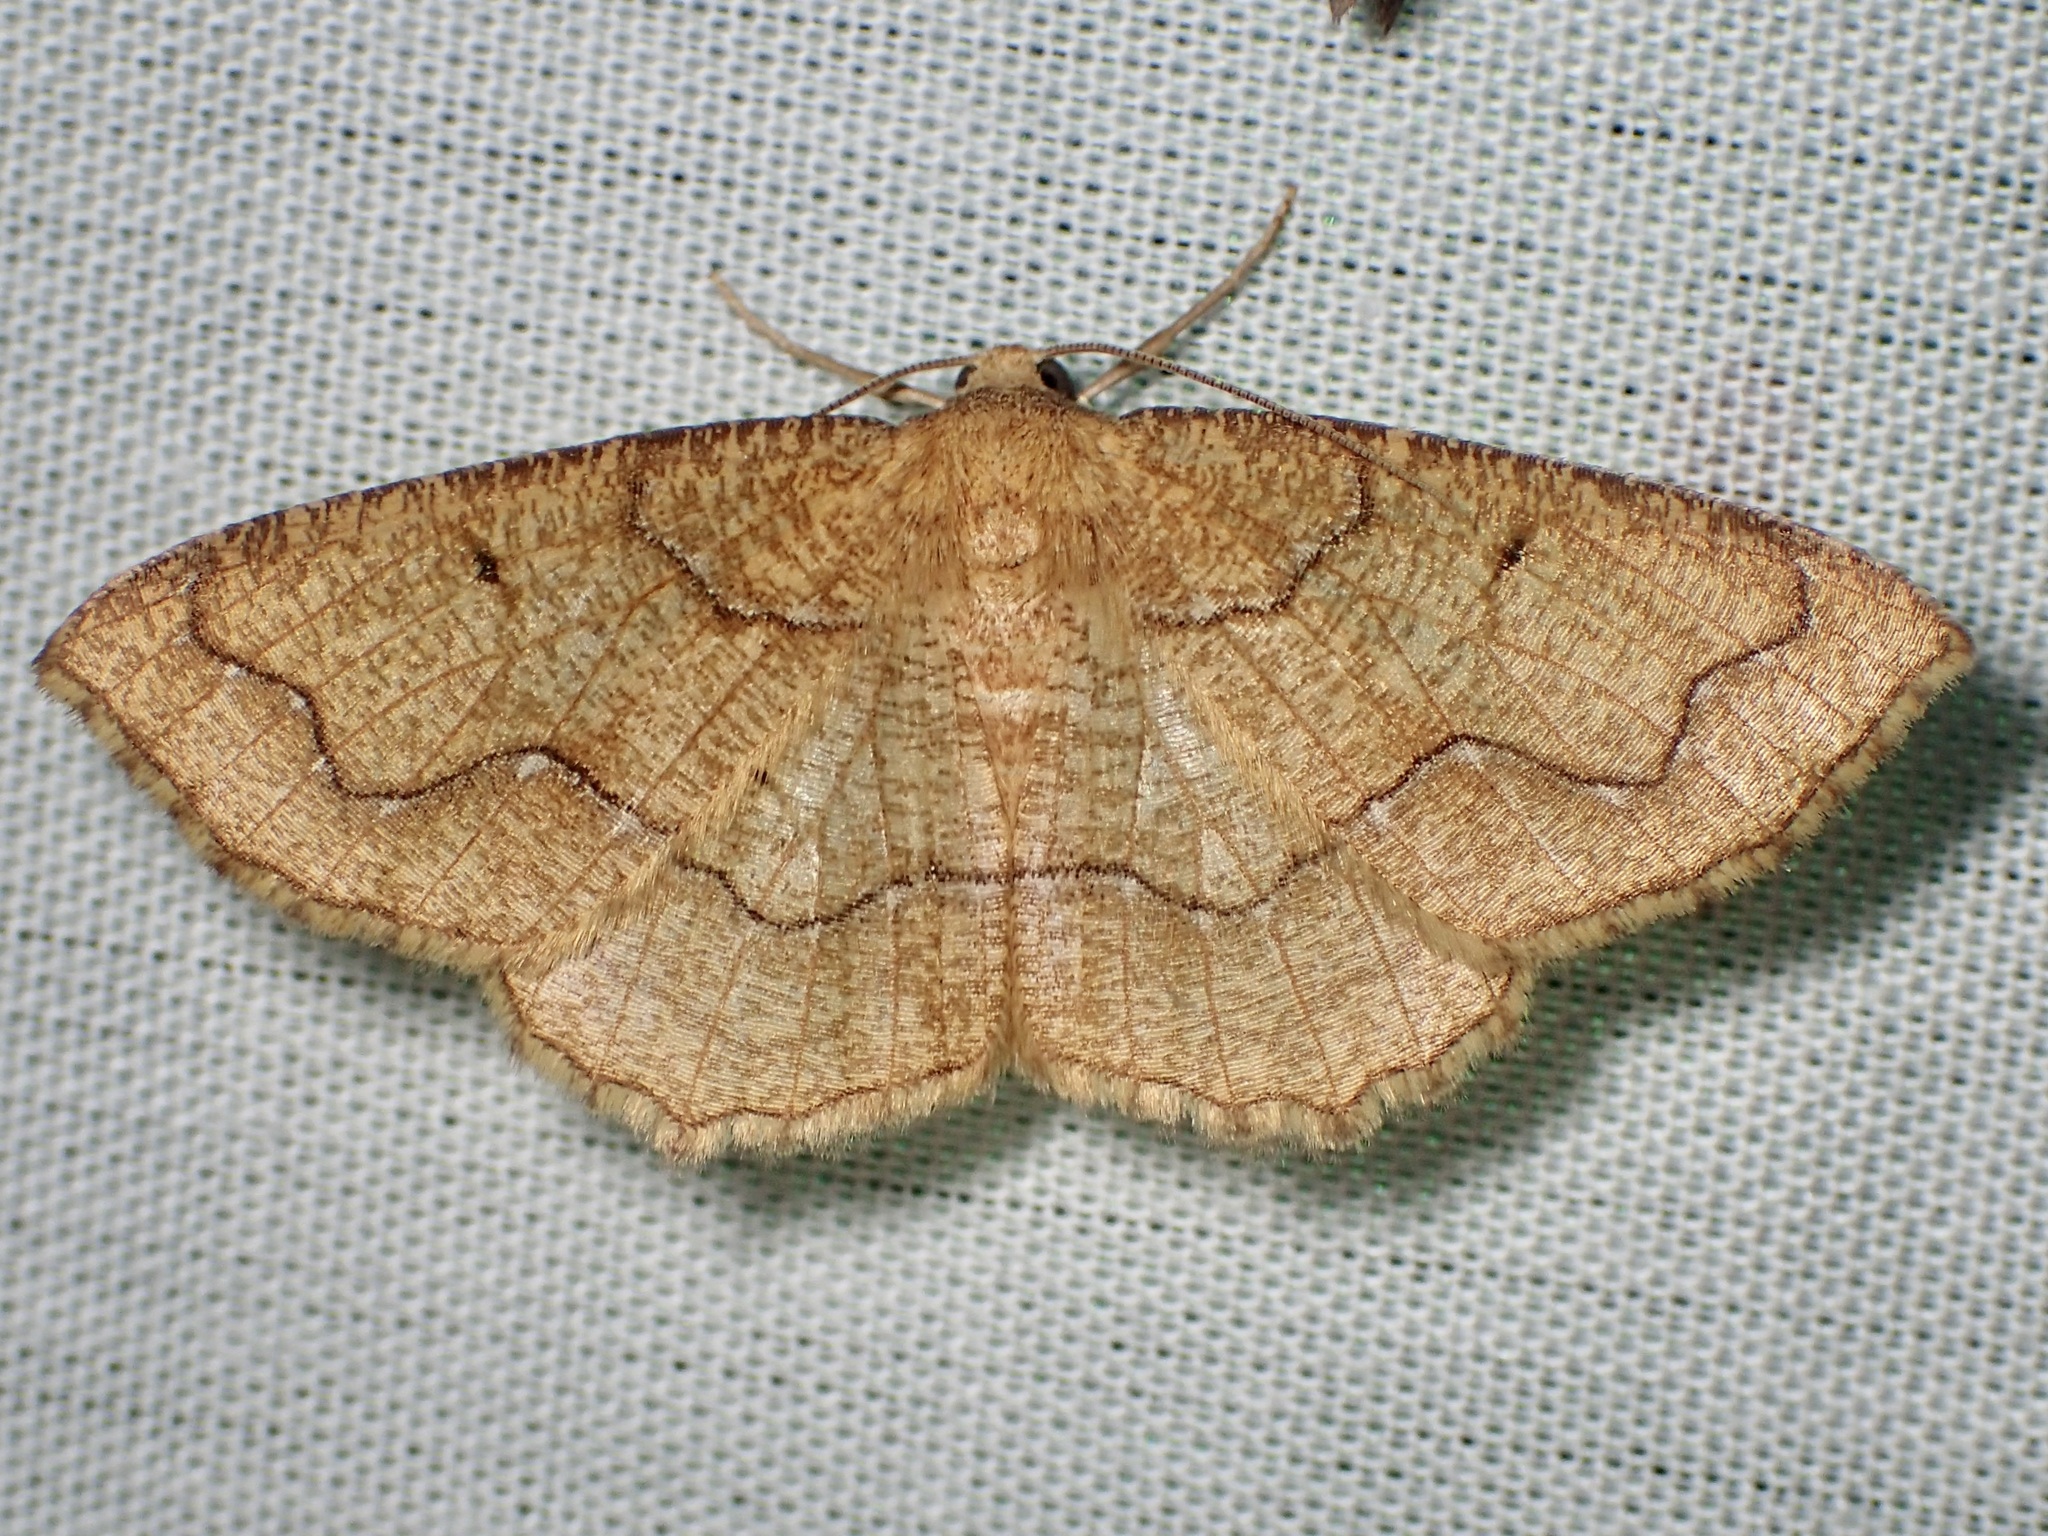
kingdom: Animalia
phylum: Arthropoda
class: Insecta
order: Lepidoptera
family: Geometridae
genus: Destutia
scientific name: Destutia flumenata
